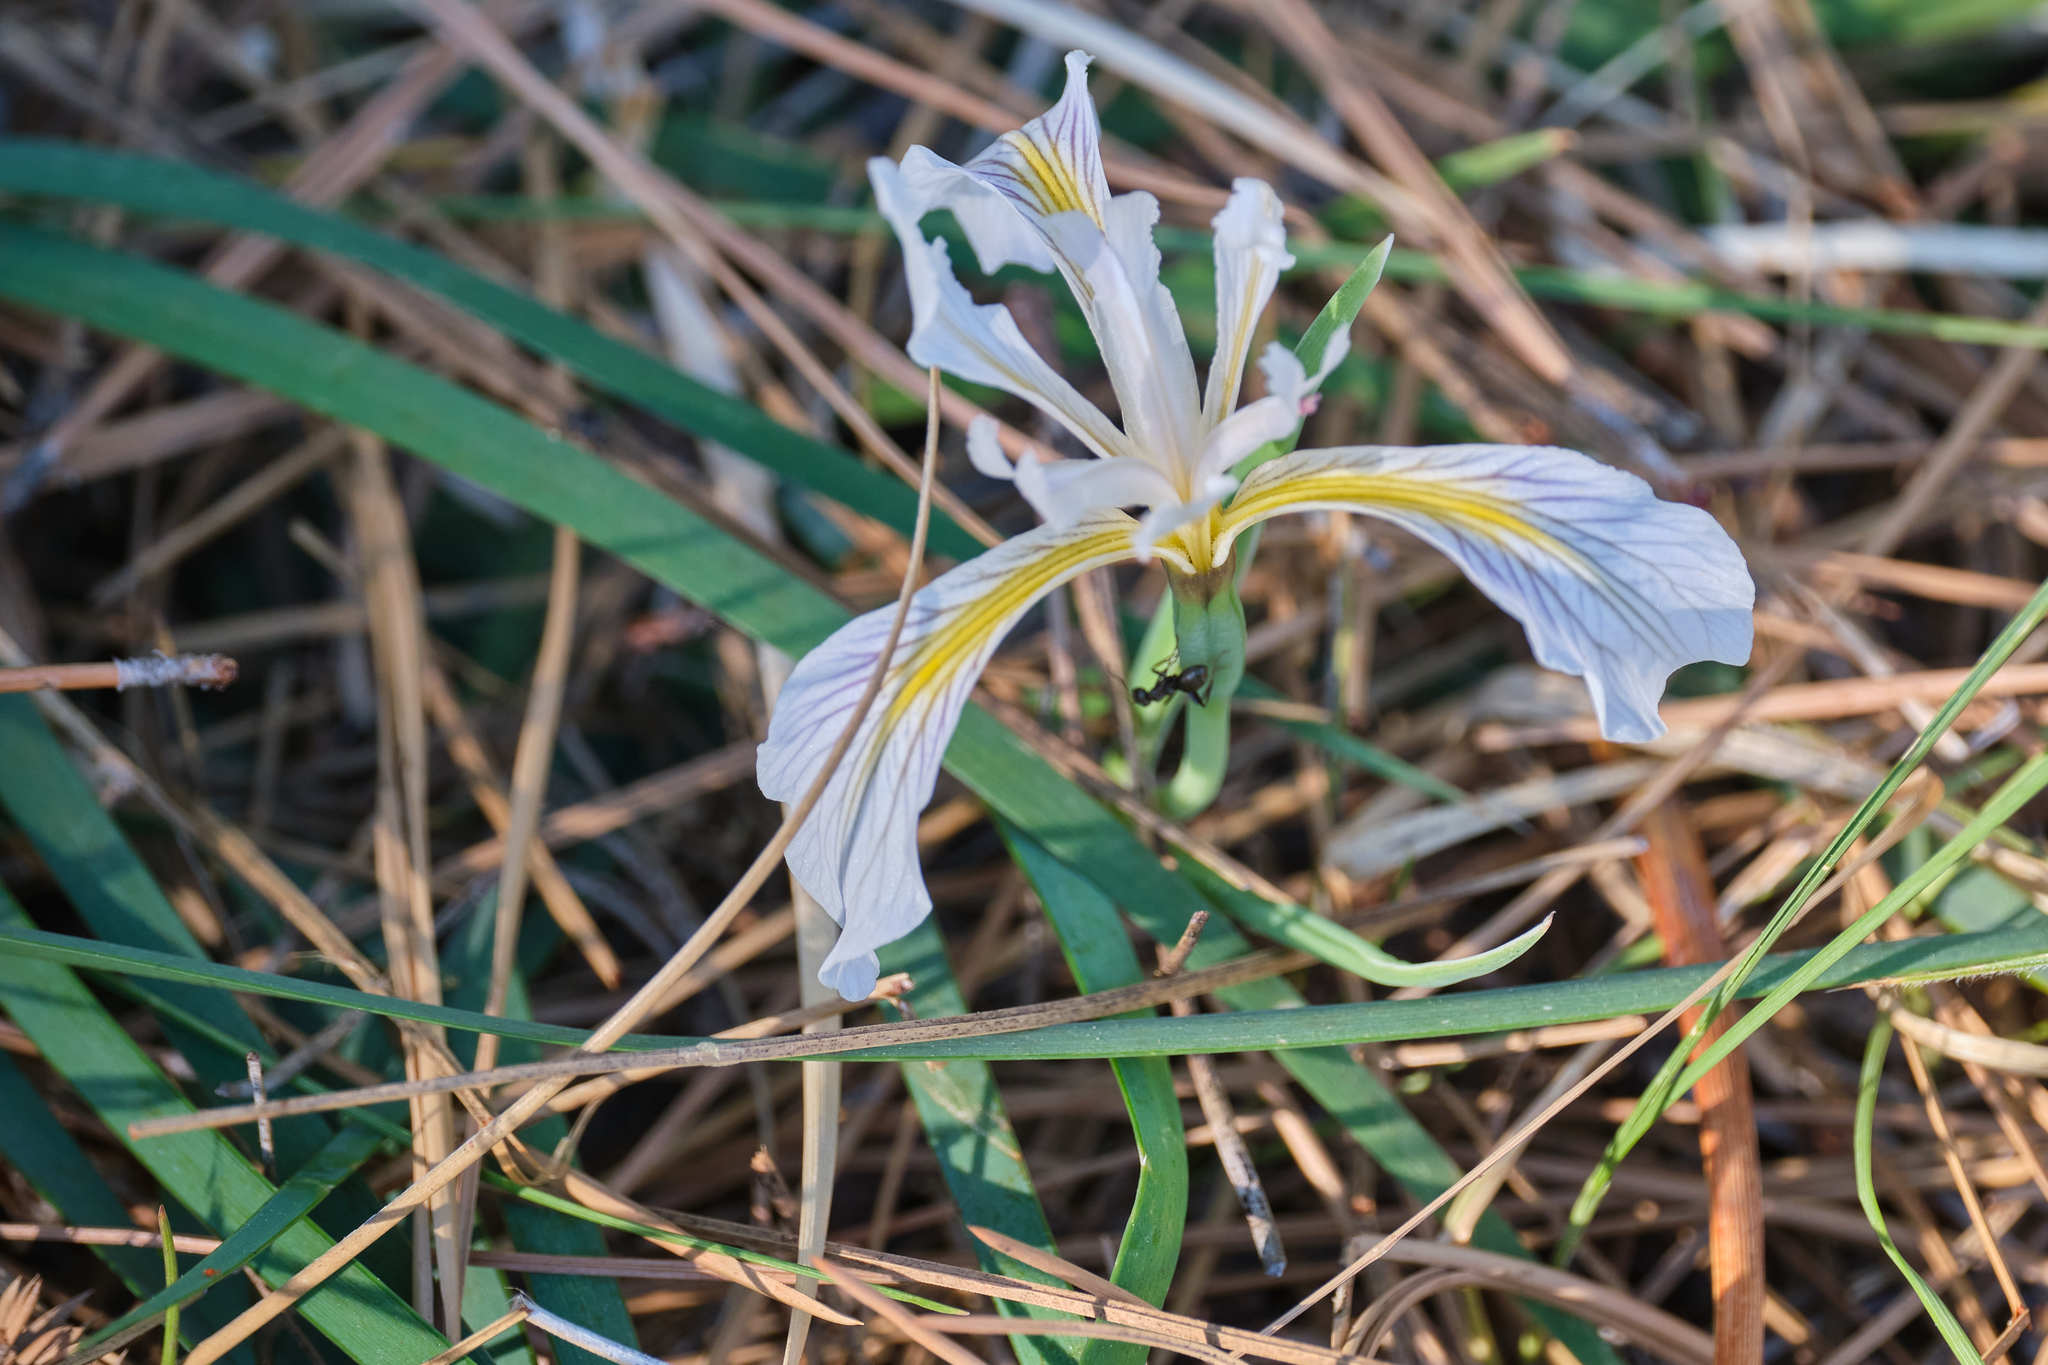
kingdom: Plantae
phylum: Tracheophyta
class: Liliopsida
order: Asparagales
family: Iridaceae
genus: Iris
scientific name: Iris hartwegii
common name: Sierra iris
